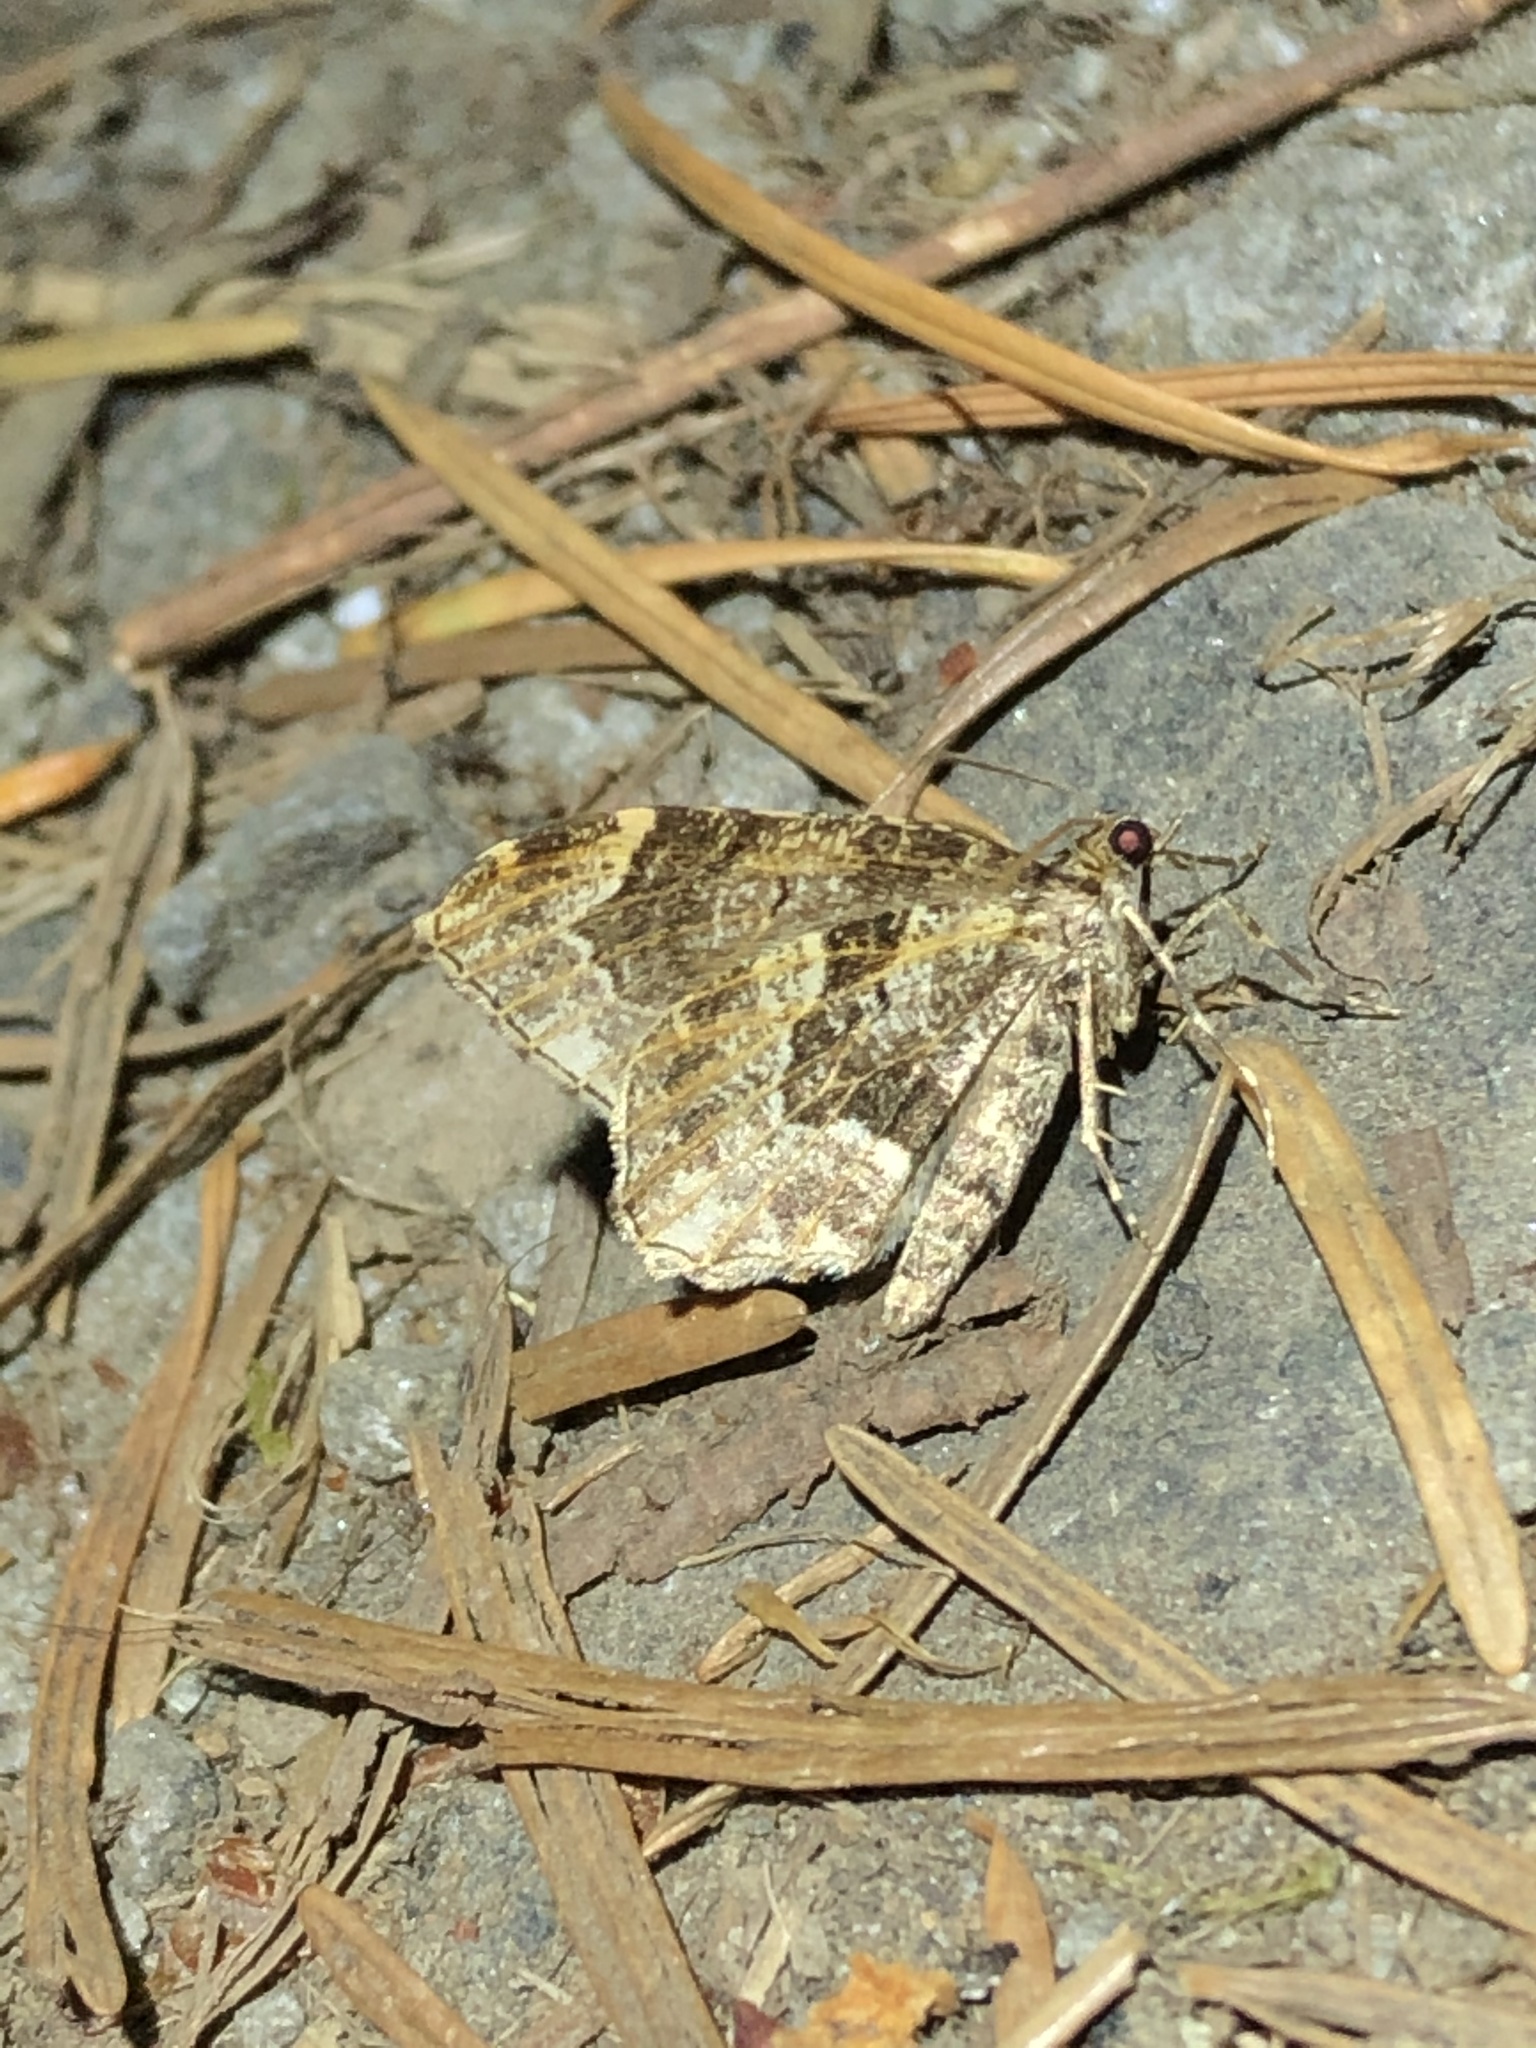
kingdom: Animalia
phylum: Arthropoda
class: Insecta
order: Lepidoptera
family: Geometridae
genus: Ceratodalia
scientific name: Ceratodalia gueneata
